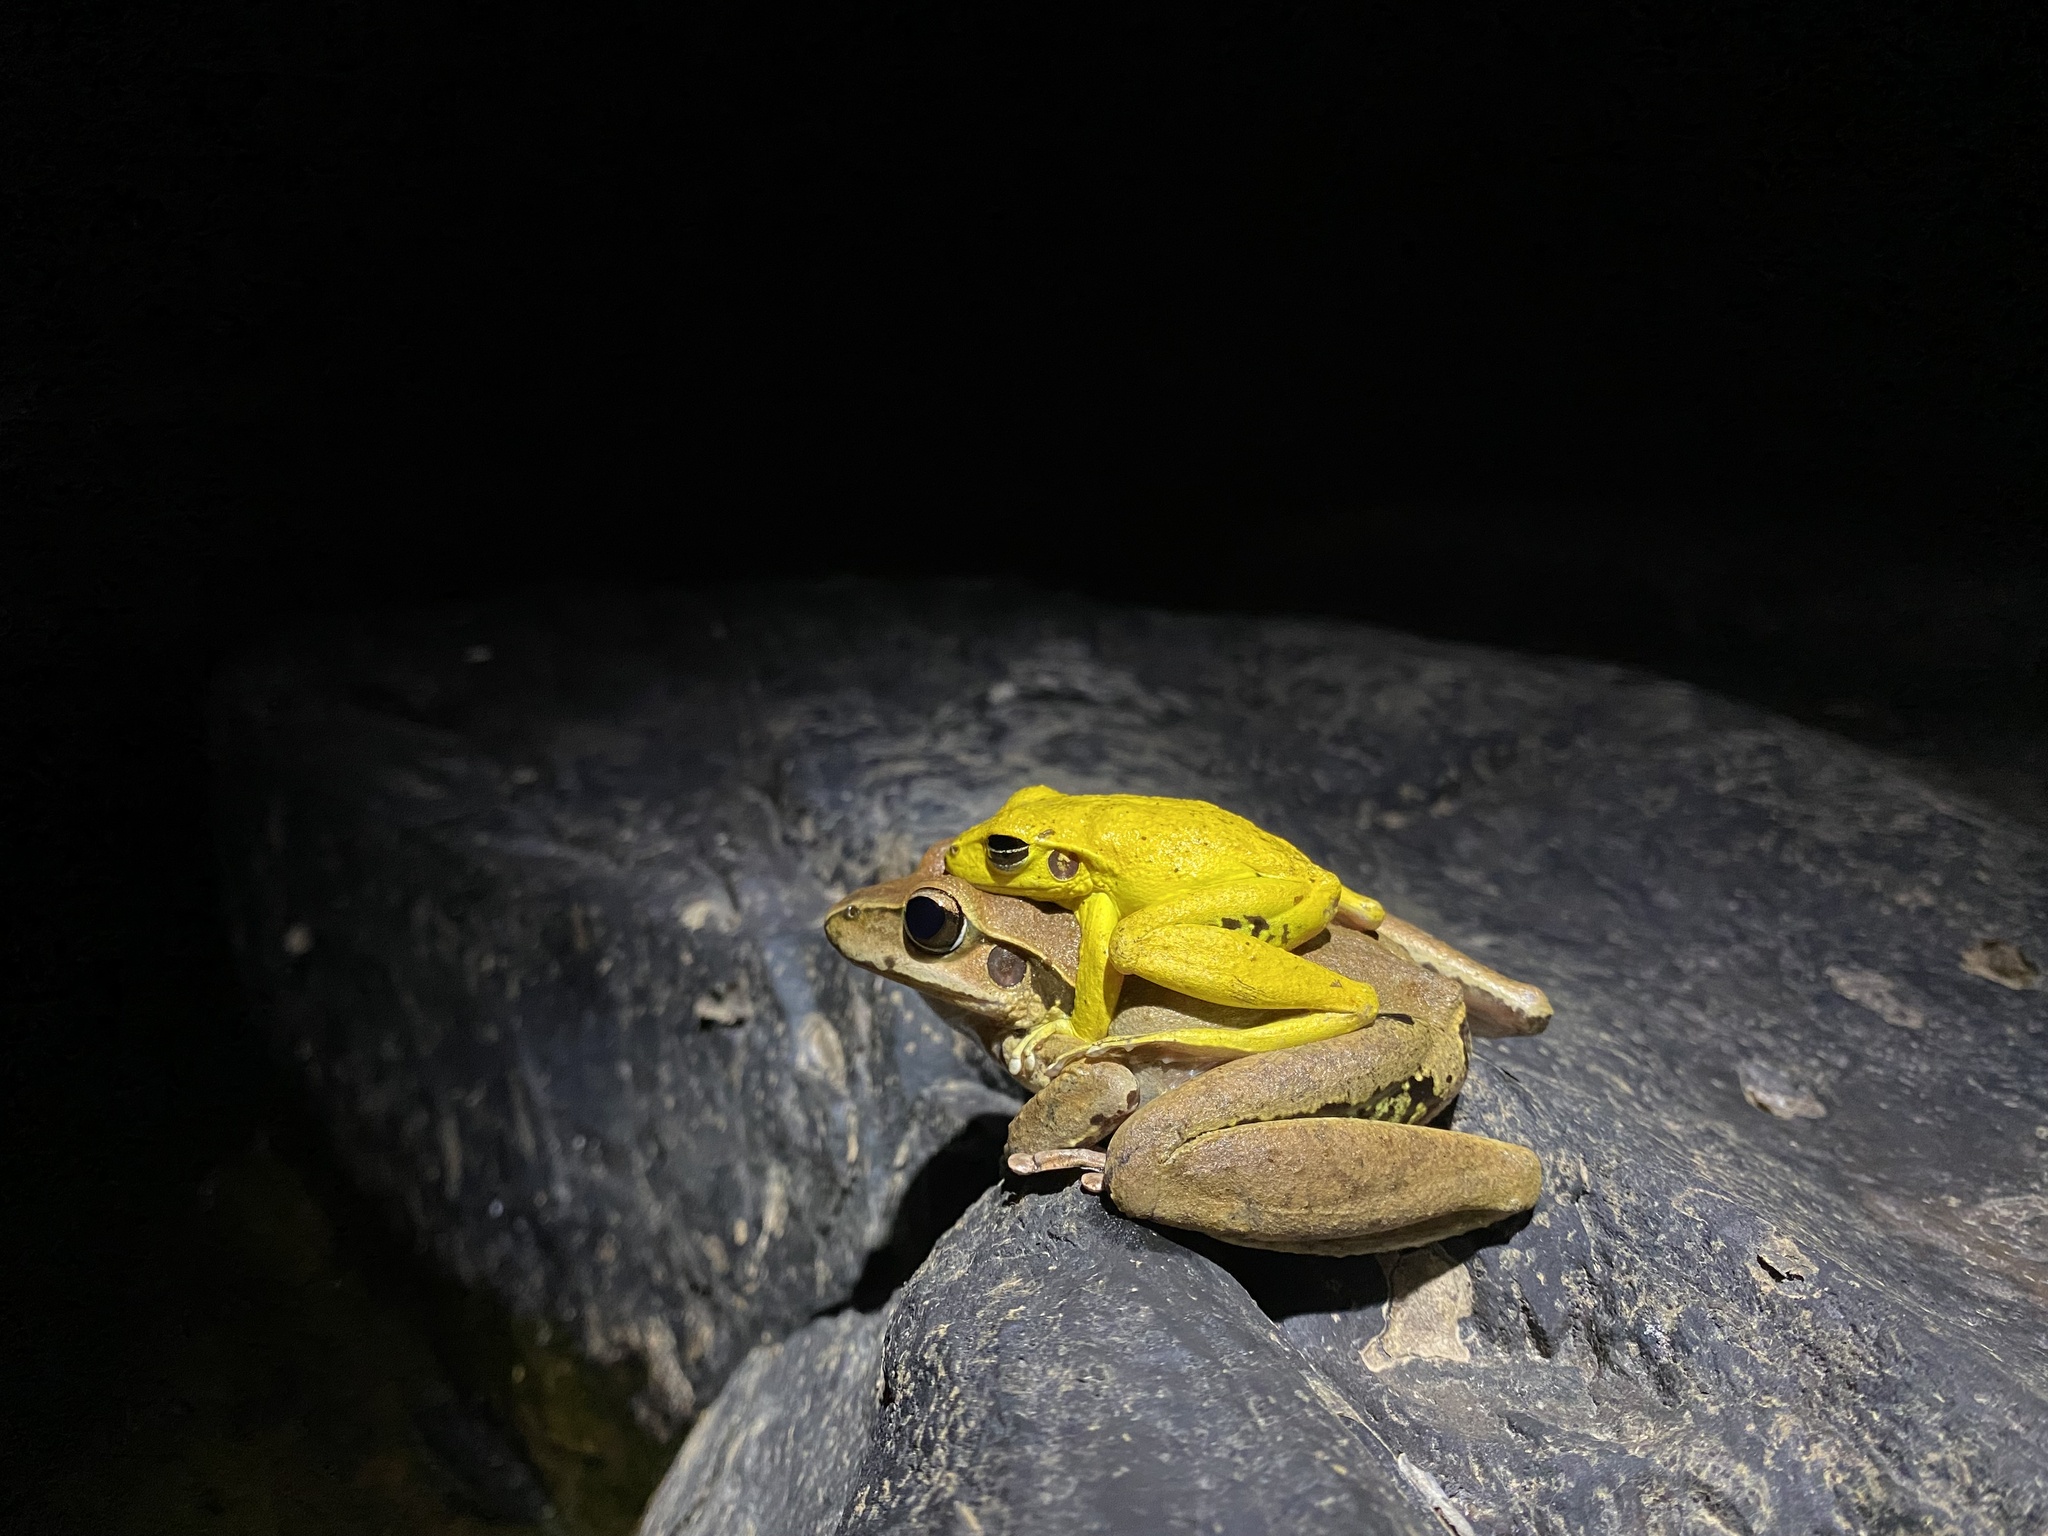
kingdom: Animalia
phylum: Chordata
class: Amphibia
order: Anura
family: Pelodryadidae
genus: Ranoidea
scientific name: Ranoidea jungguy
